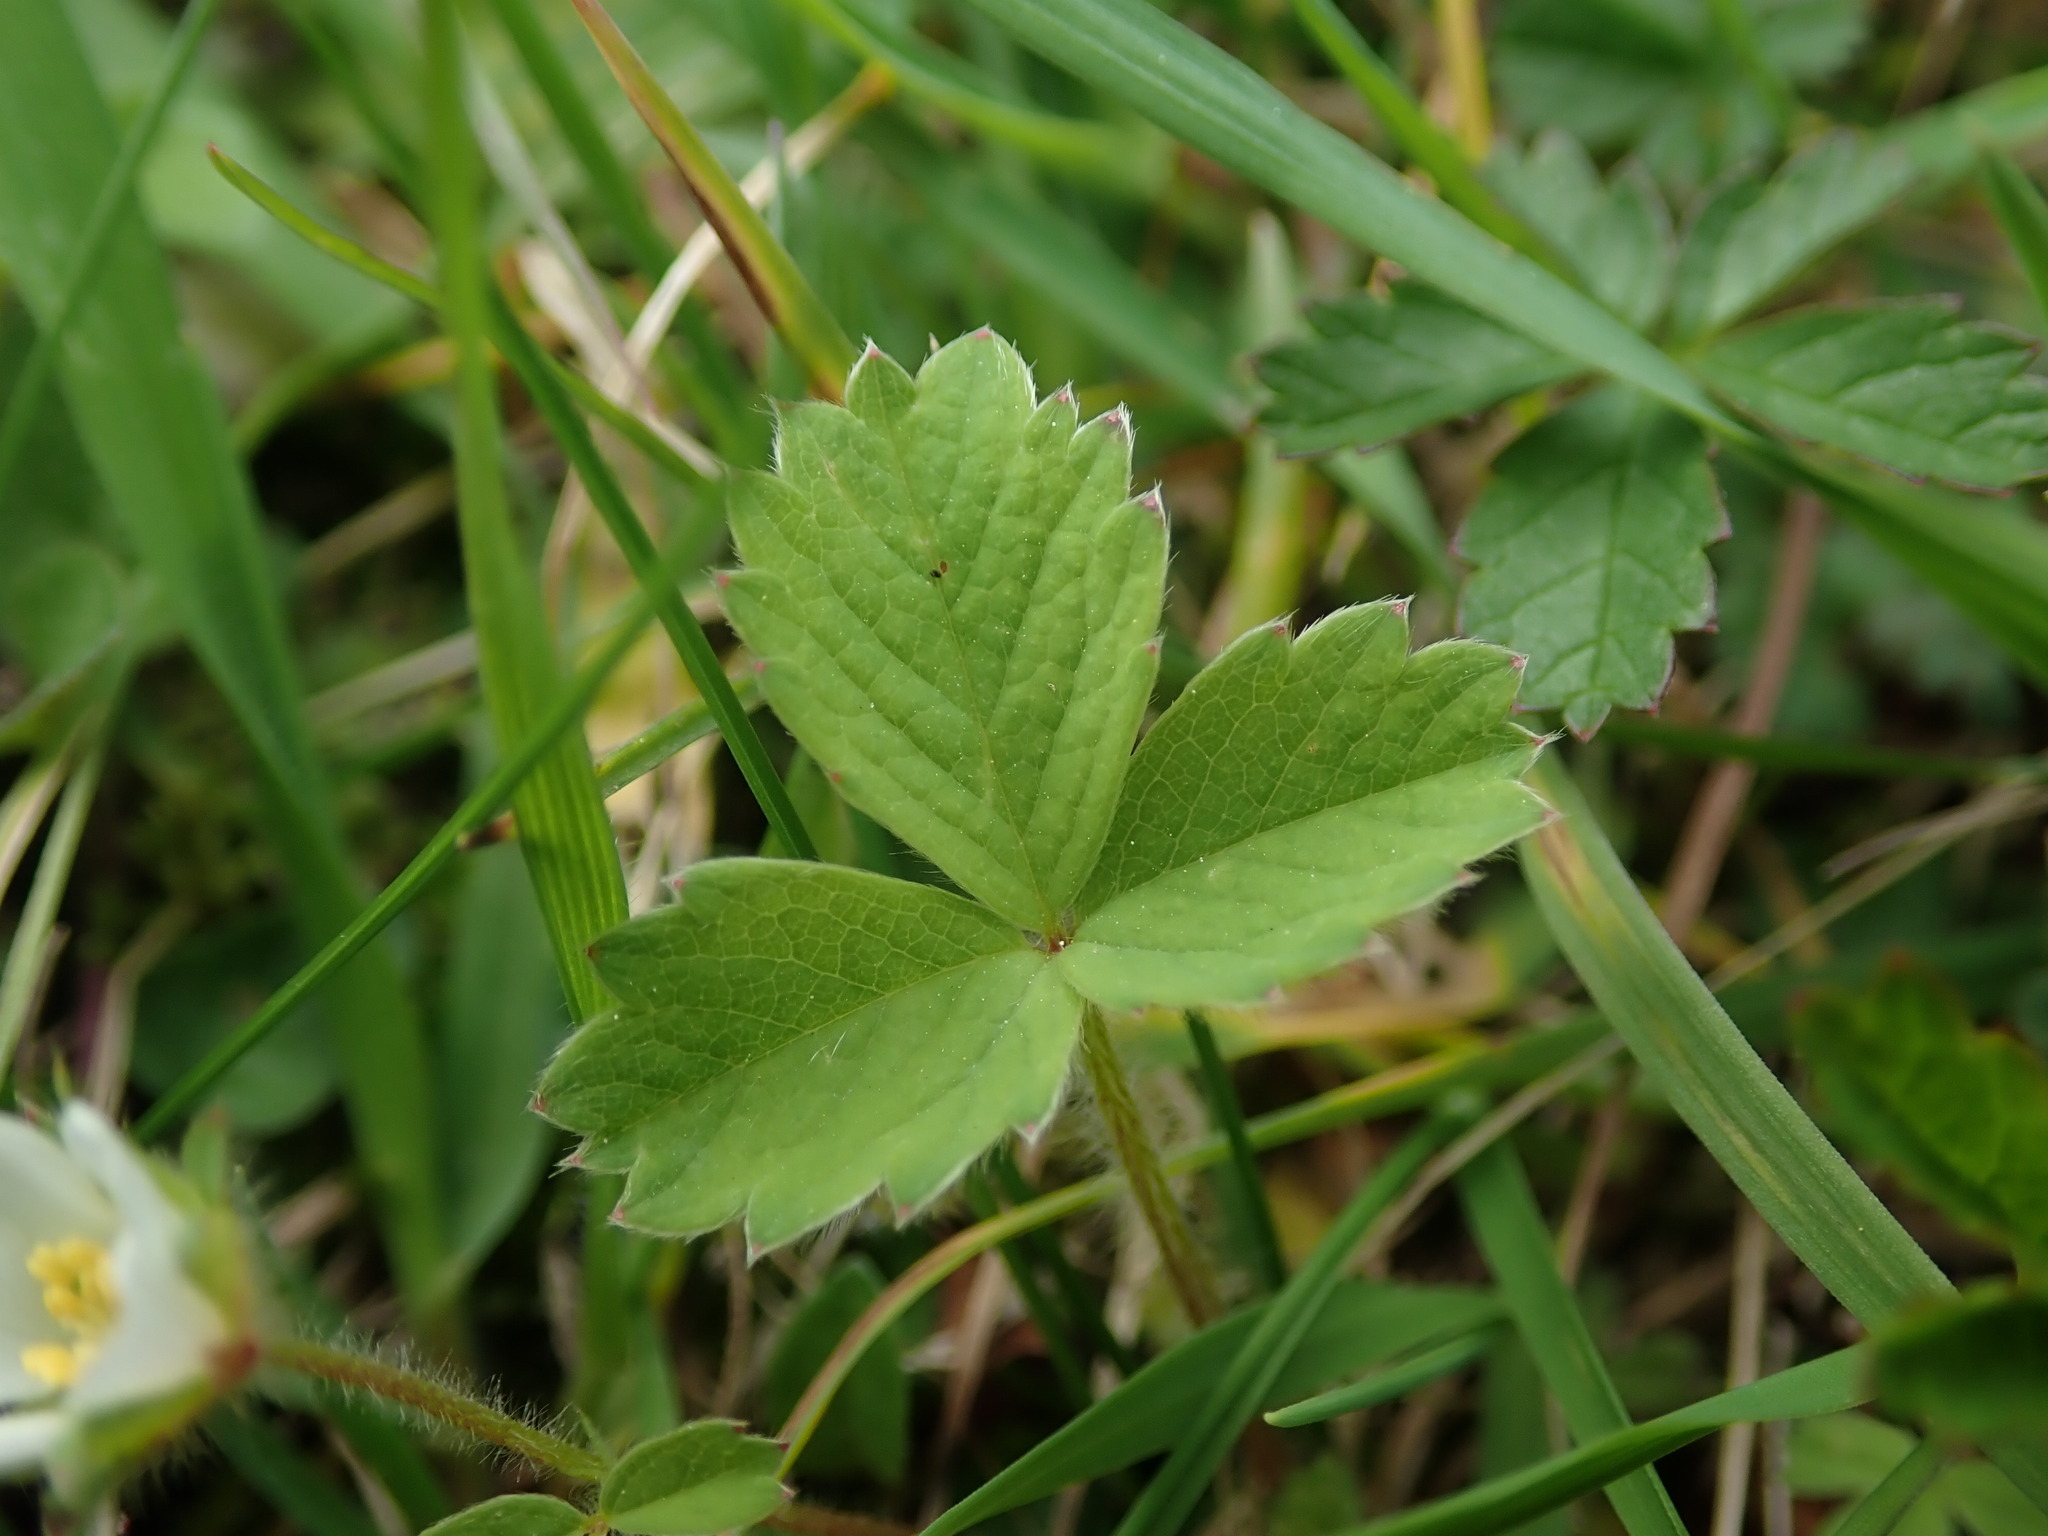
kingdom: Plantae
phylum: Tracheophyta
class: Magnoliopsida
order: Rosales
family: Rosaceae
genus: Potentilla
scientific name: Potentilla sterilis
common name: Barren strawberry
